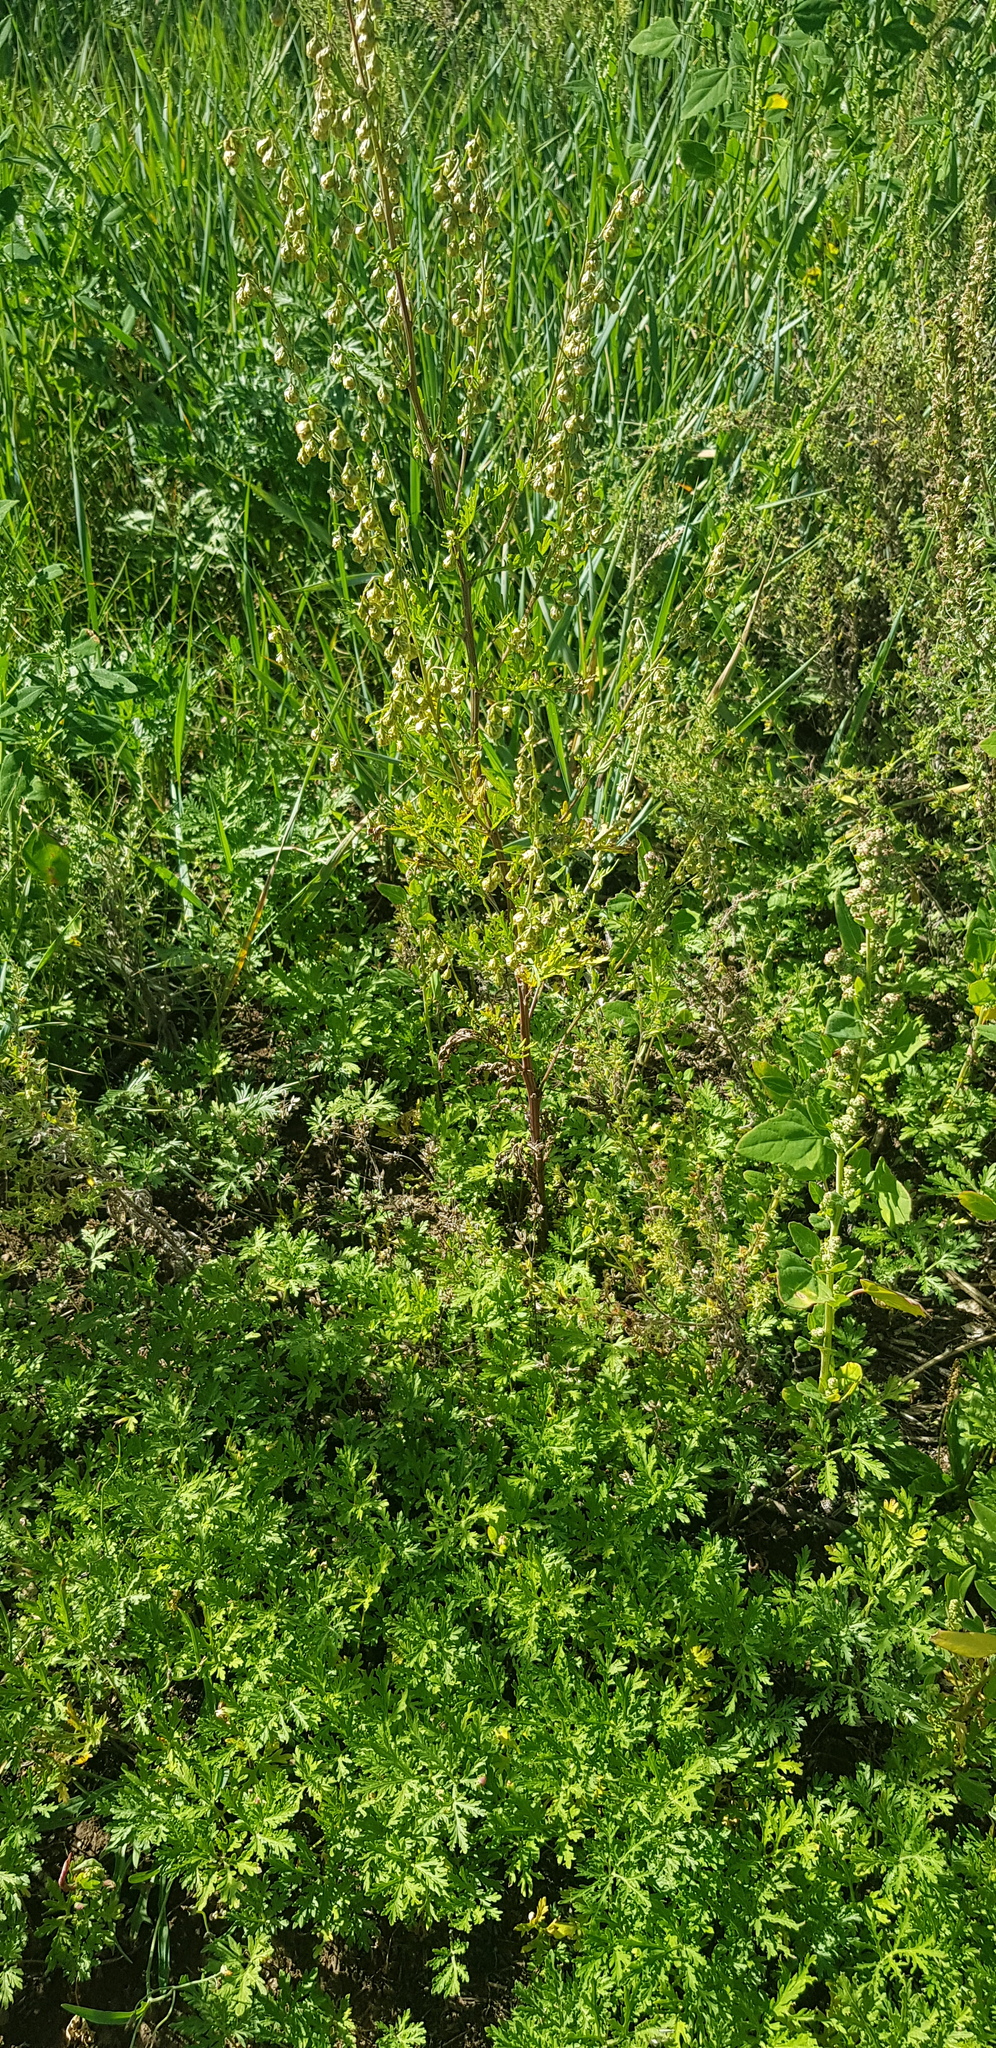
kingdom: Plantae
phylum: Tracheophyta
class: Magnoliopsida
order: Asterales
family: Asteraceae
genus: Artemisia
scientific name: Artemisia gmelinii
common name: Gmelin's wormwood
